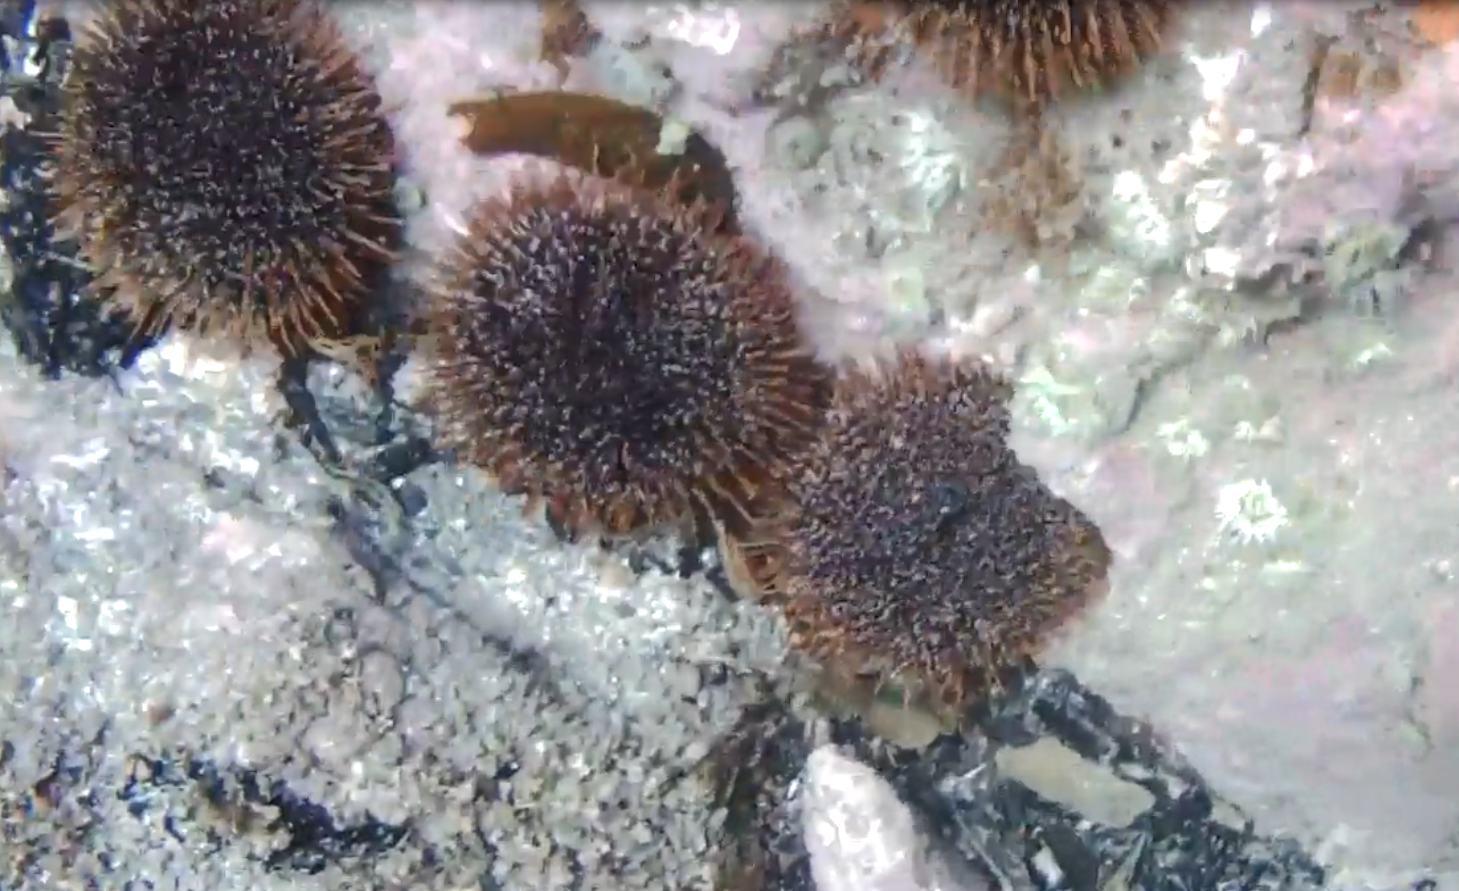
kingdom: Animalia
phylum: Echinodermata
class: Echinoidea
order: Camarodonta
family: Echinometridae
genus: Evechinus
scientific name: Evechinus chloroticus
